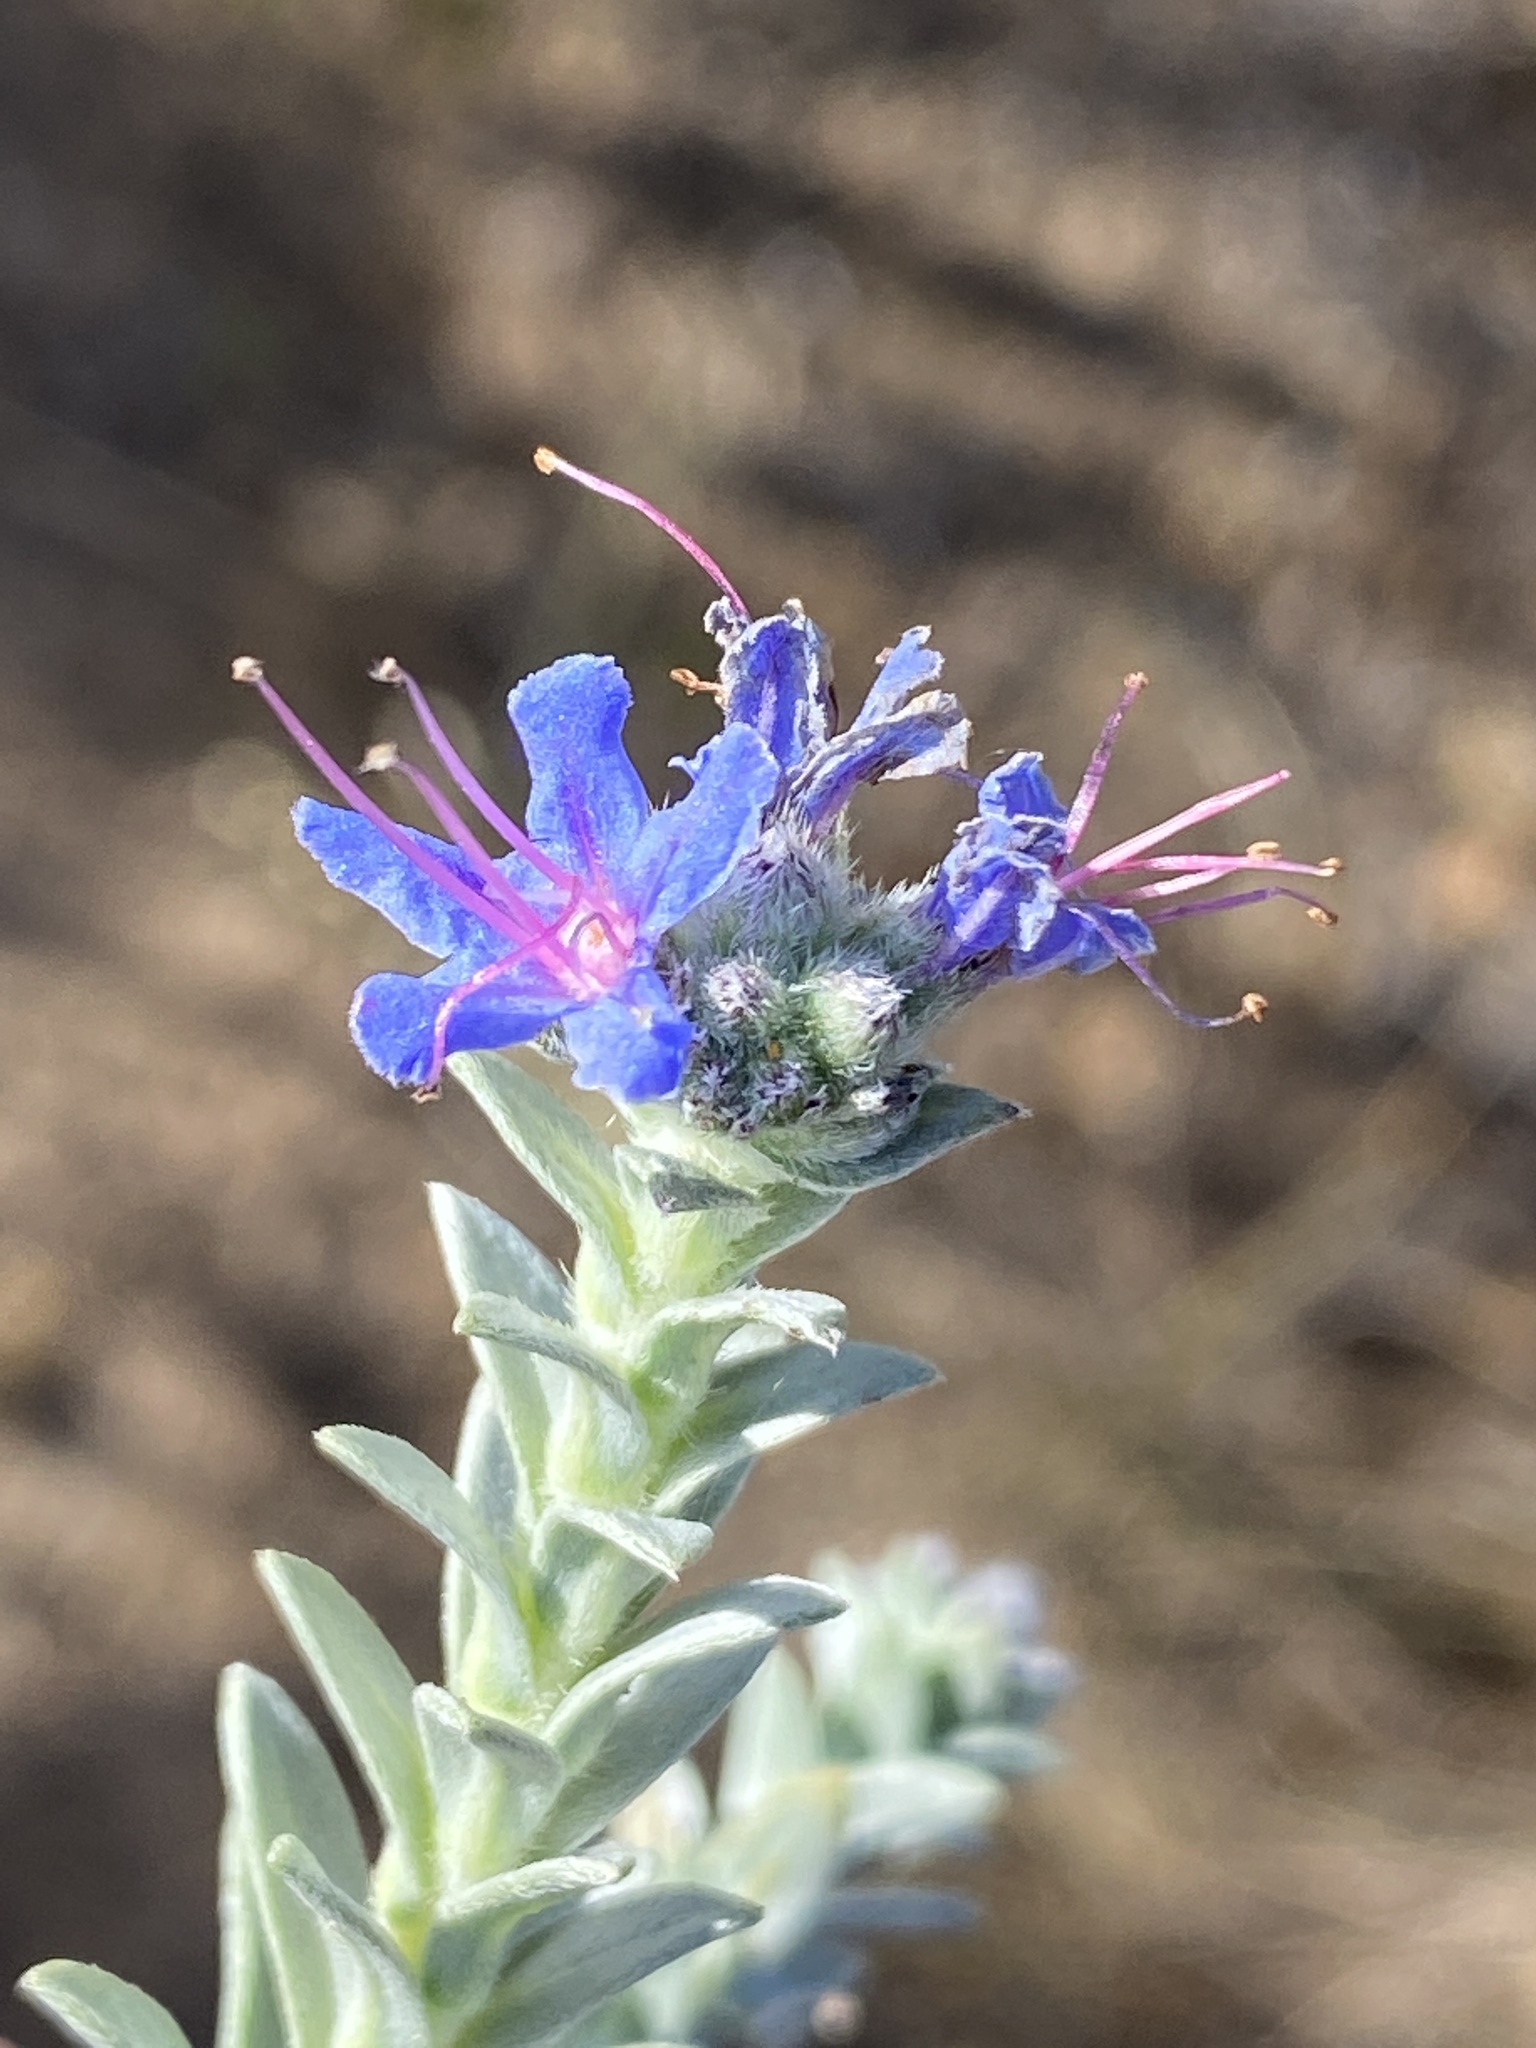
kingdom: Plantae
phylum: Tracheophyta
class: Magnoliopsida
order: Boraginales
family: Boraginaceae
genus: Lobostemon
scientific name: Lobostemon echioides
